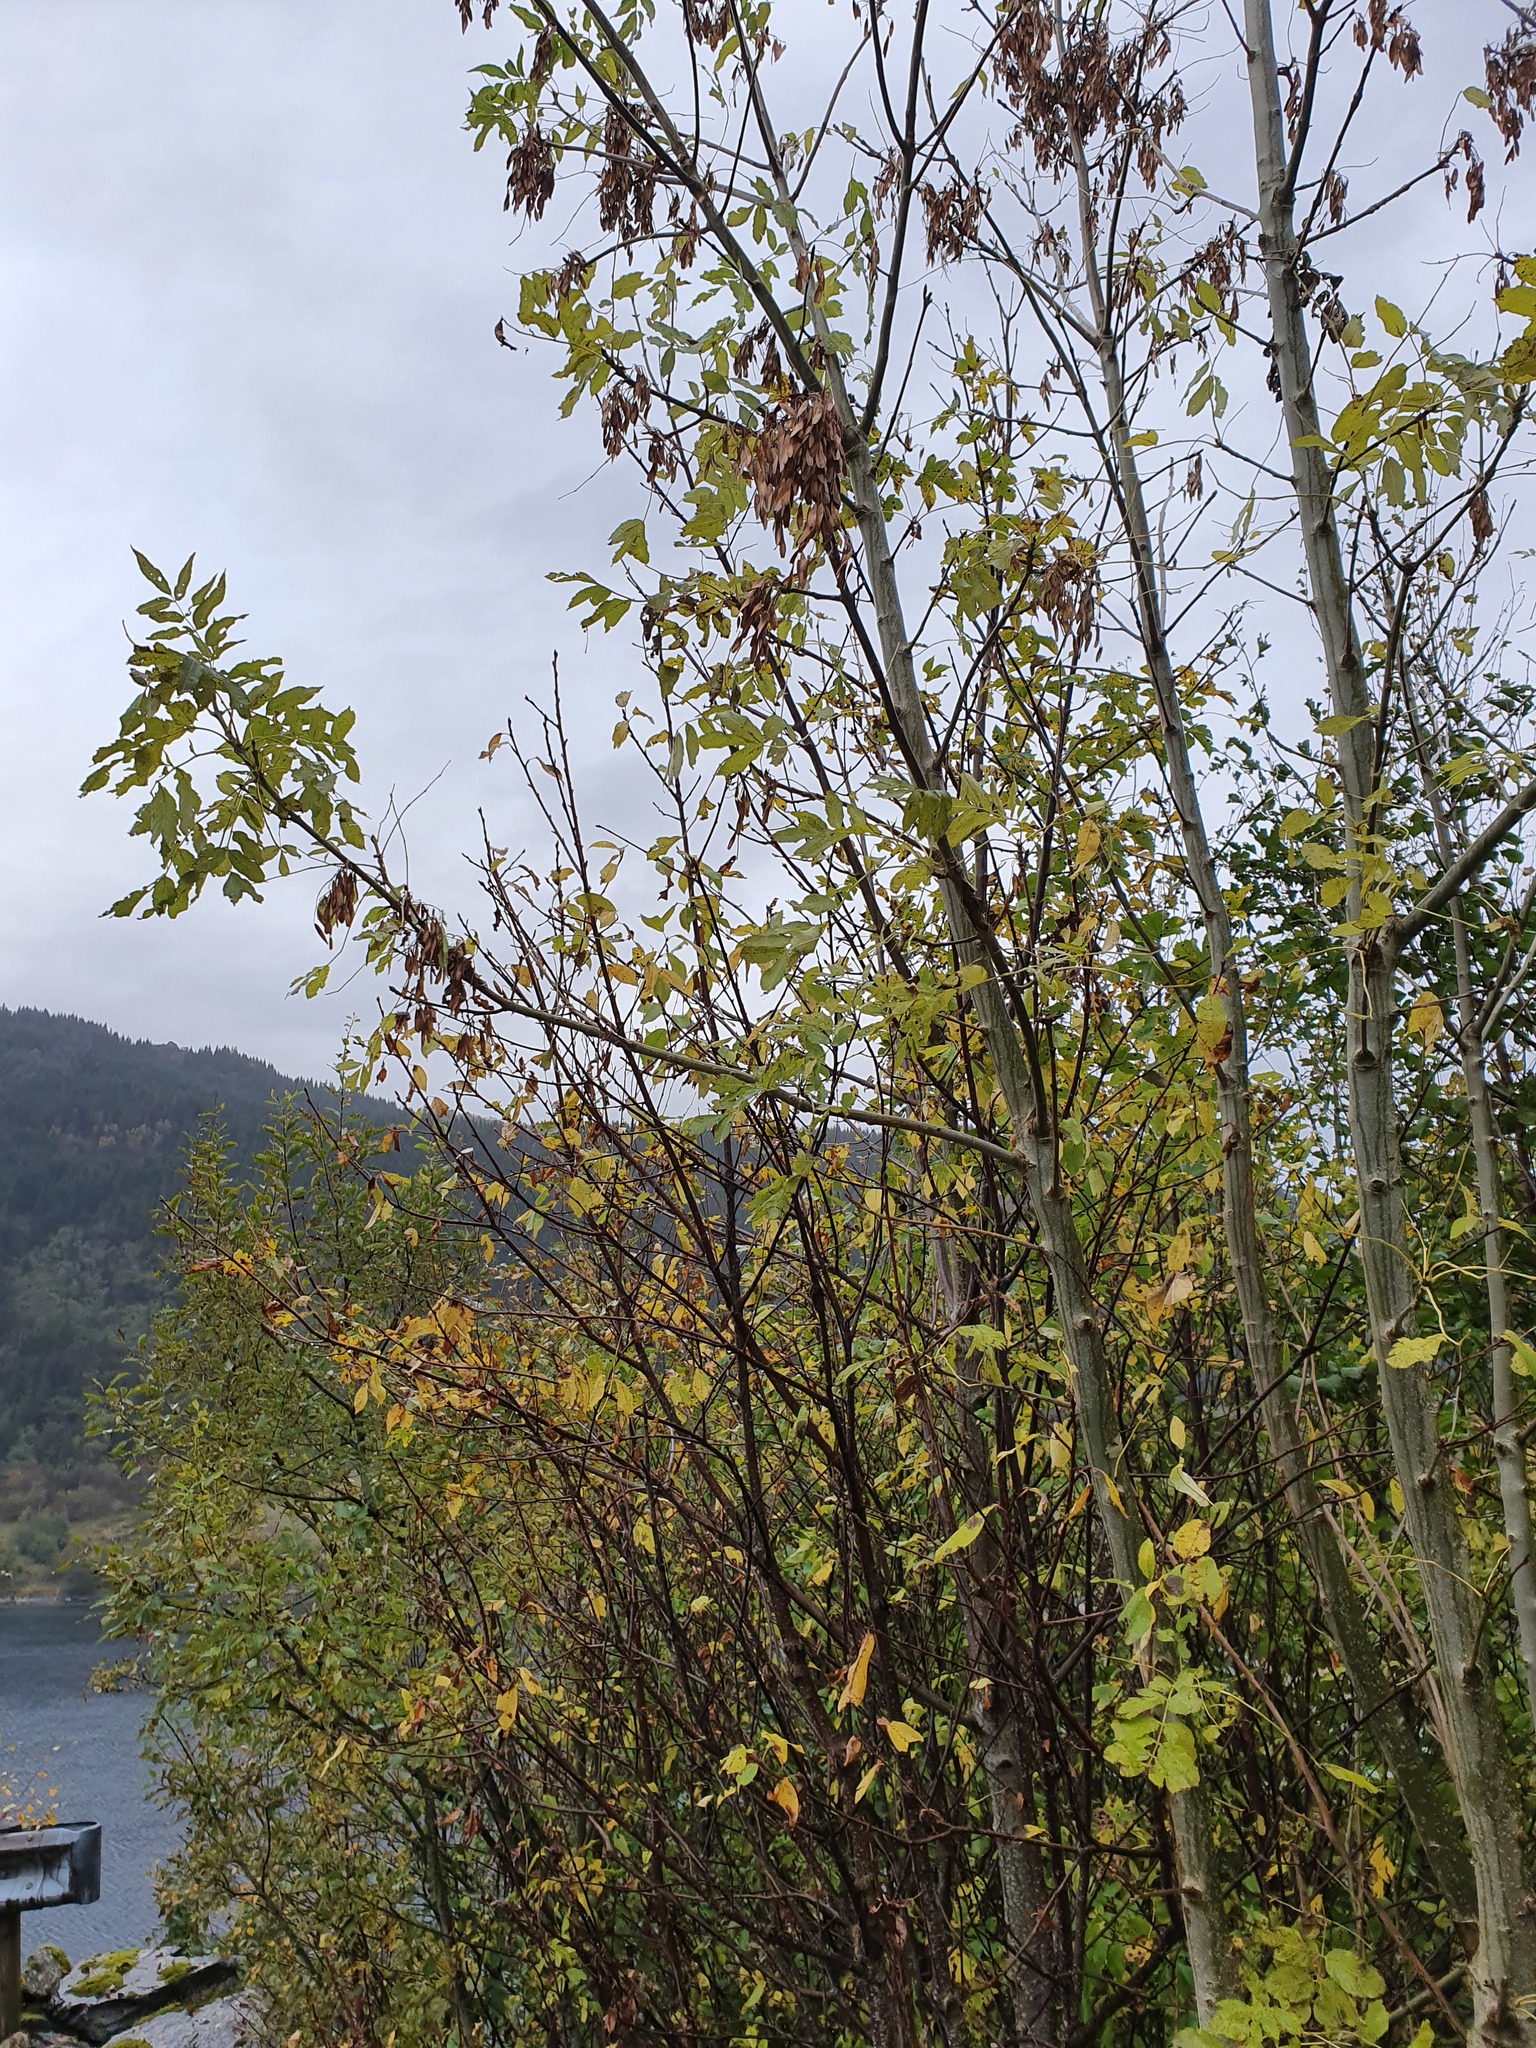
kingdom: Plantae
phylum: Tracheophyta
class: Magnoliopsida
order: Lamiales
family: Oleaceae
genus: Fraxinus
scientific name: Fraxinus excelsior
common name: European ash
